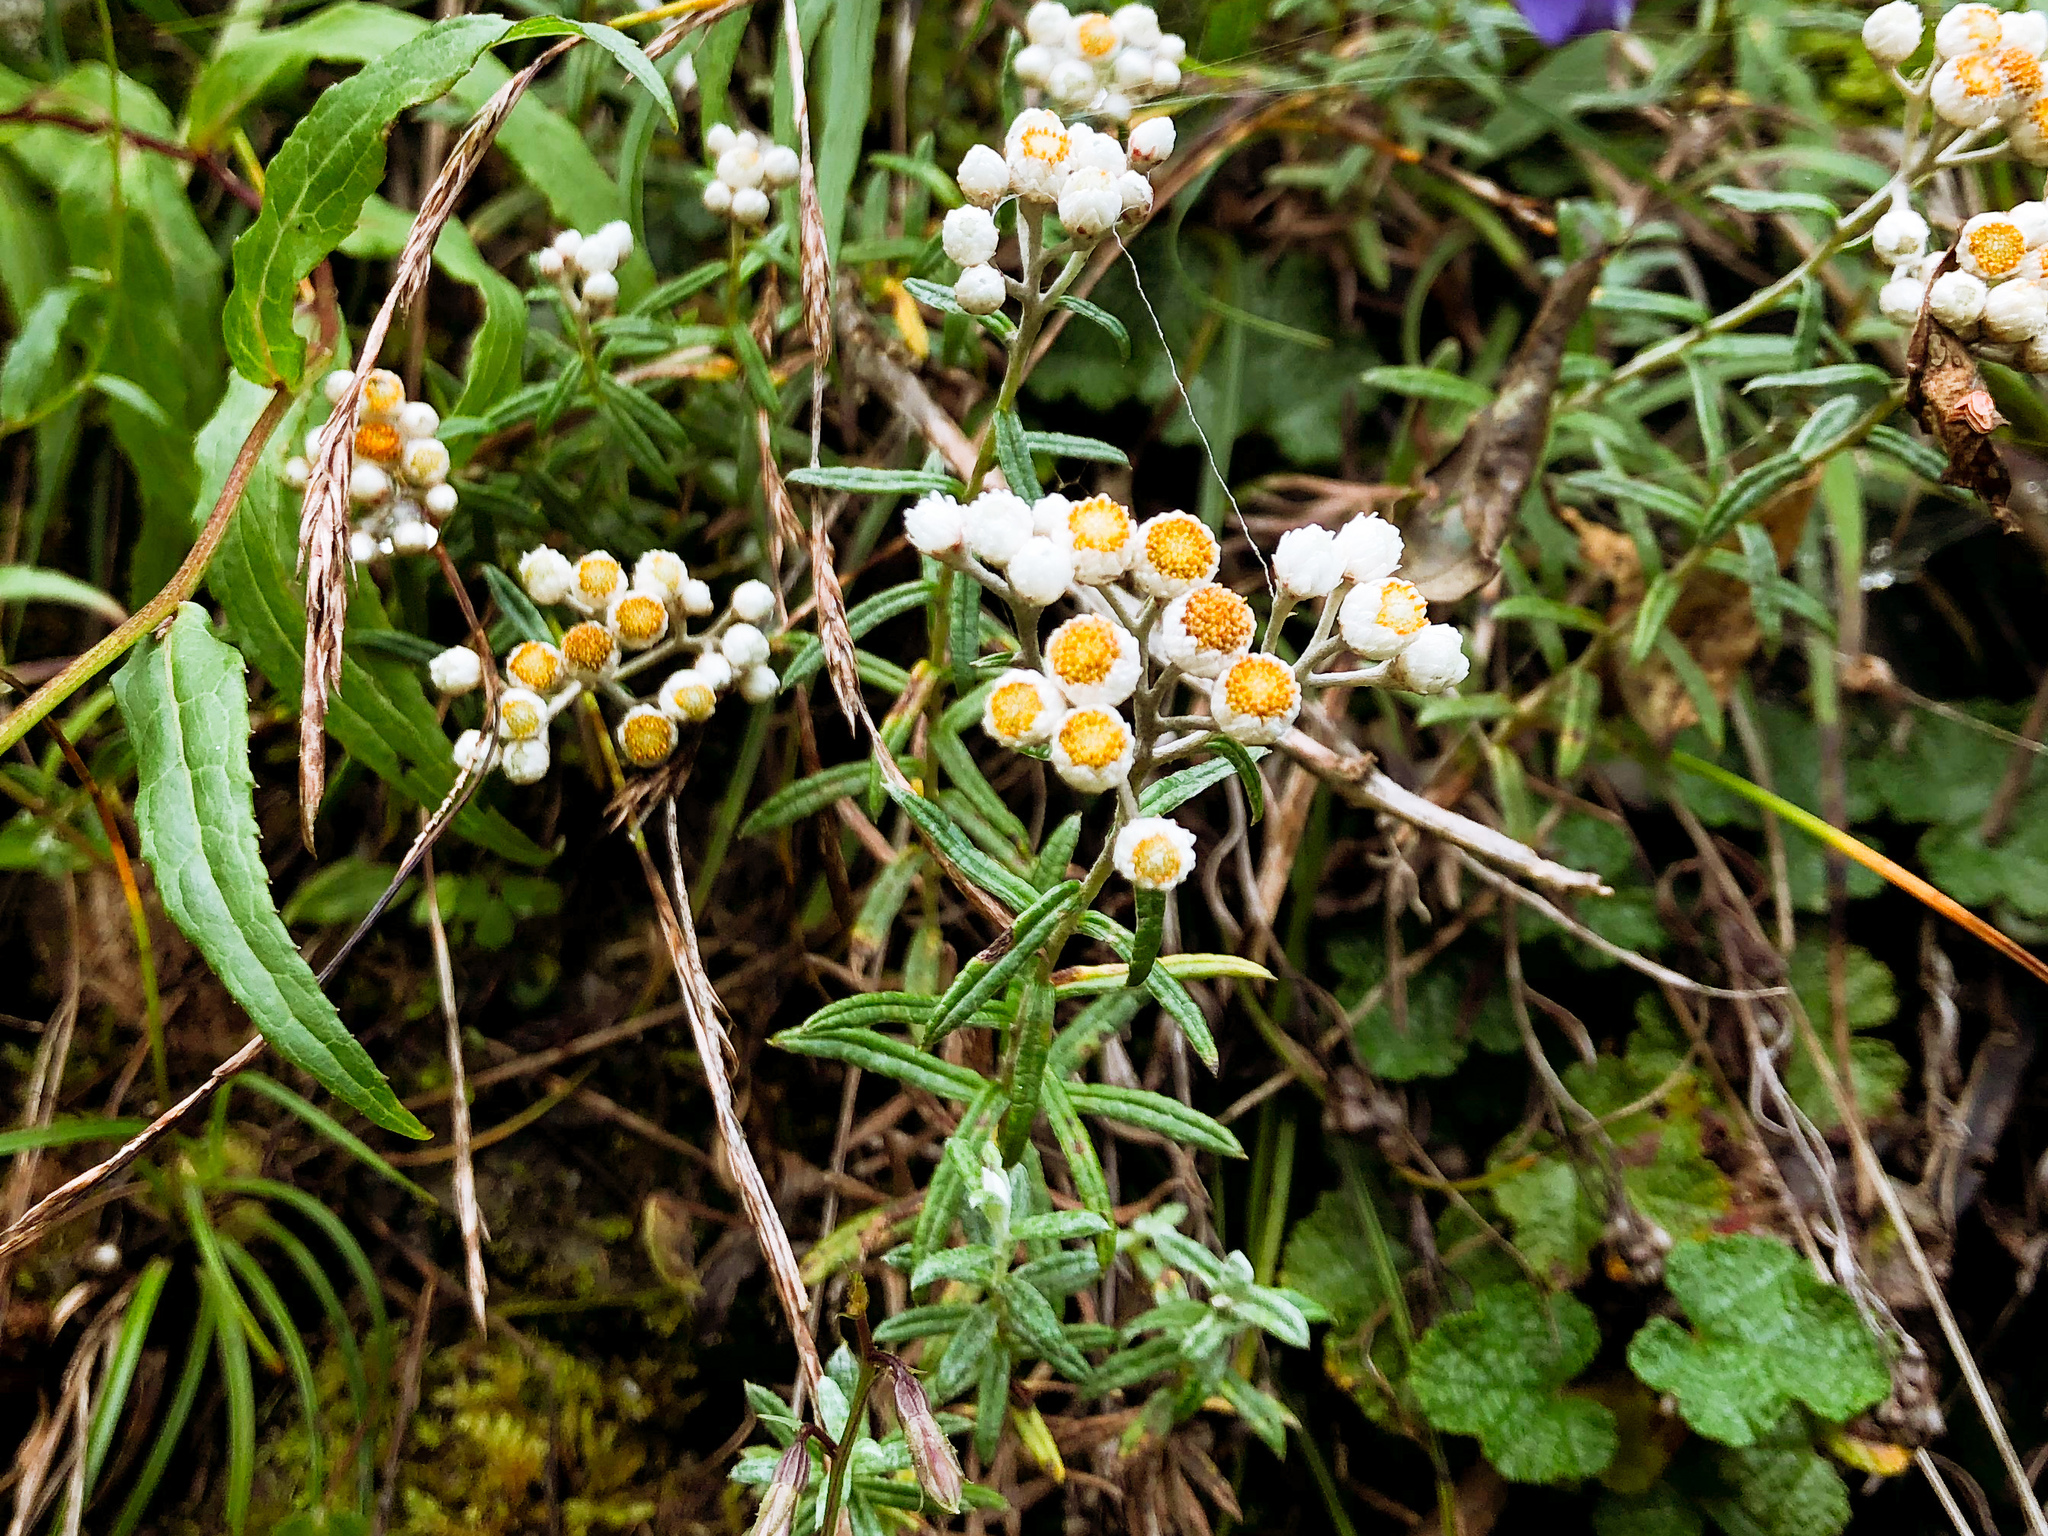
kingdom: Plantae
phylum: Tracheophyta
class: Magnoliopsida
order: Asterales
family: Asteraceae
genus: Anaphalis
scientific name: Anaphalis morrisonicola
